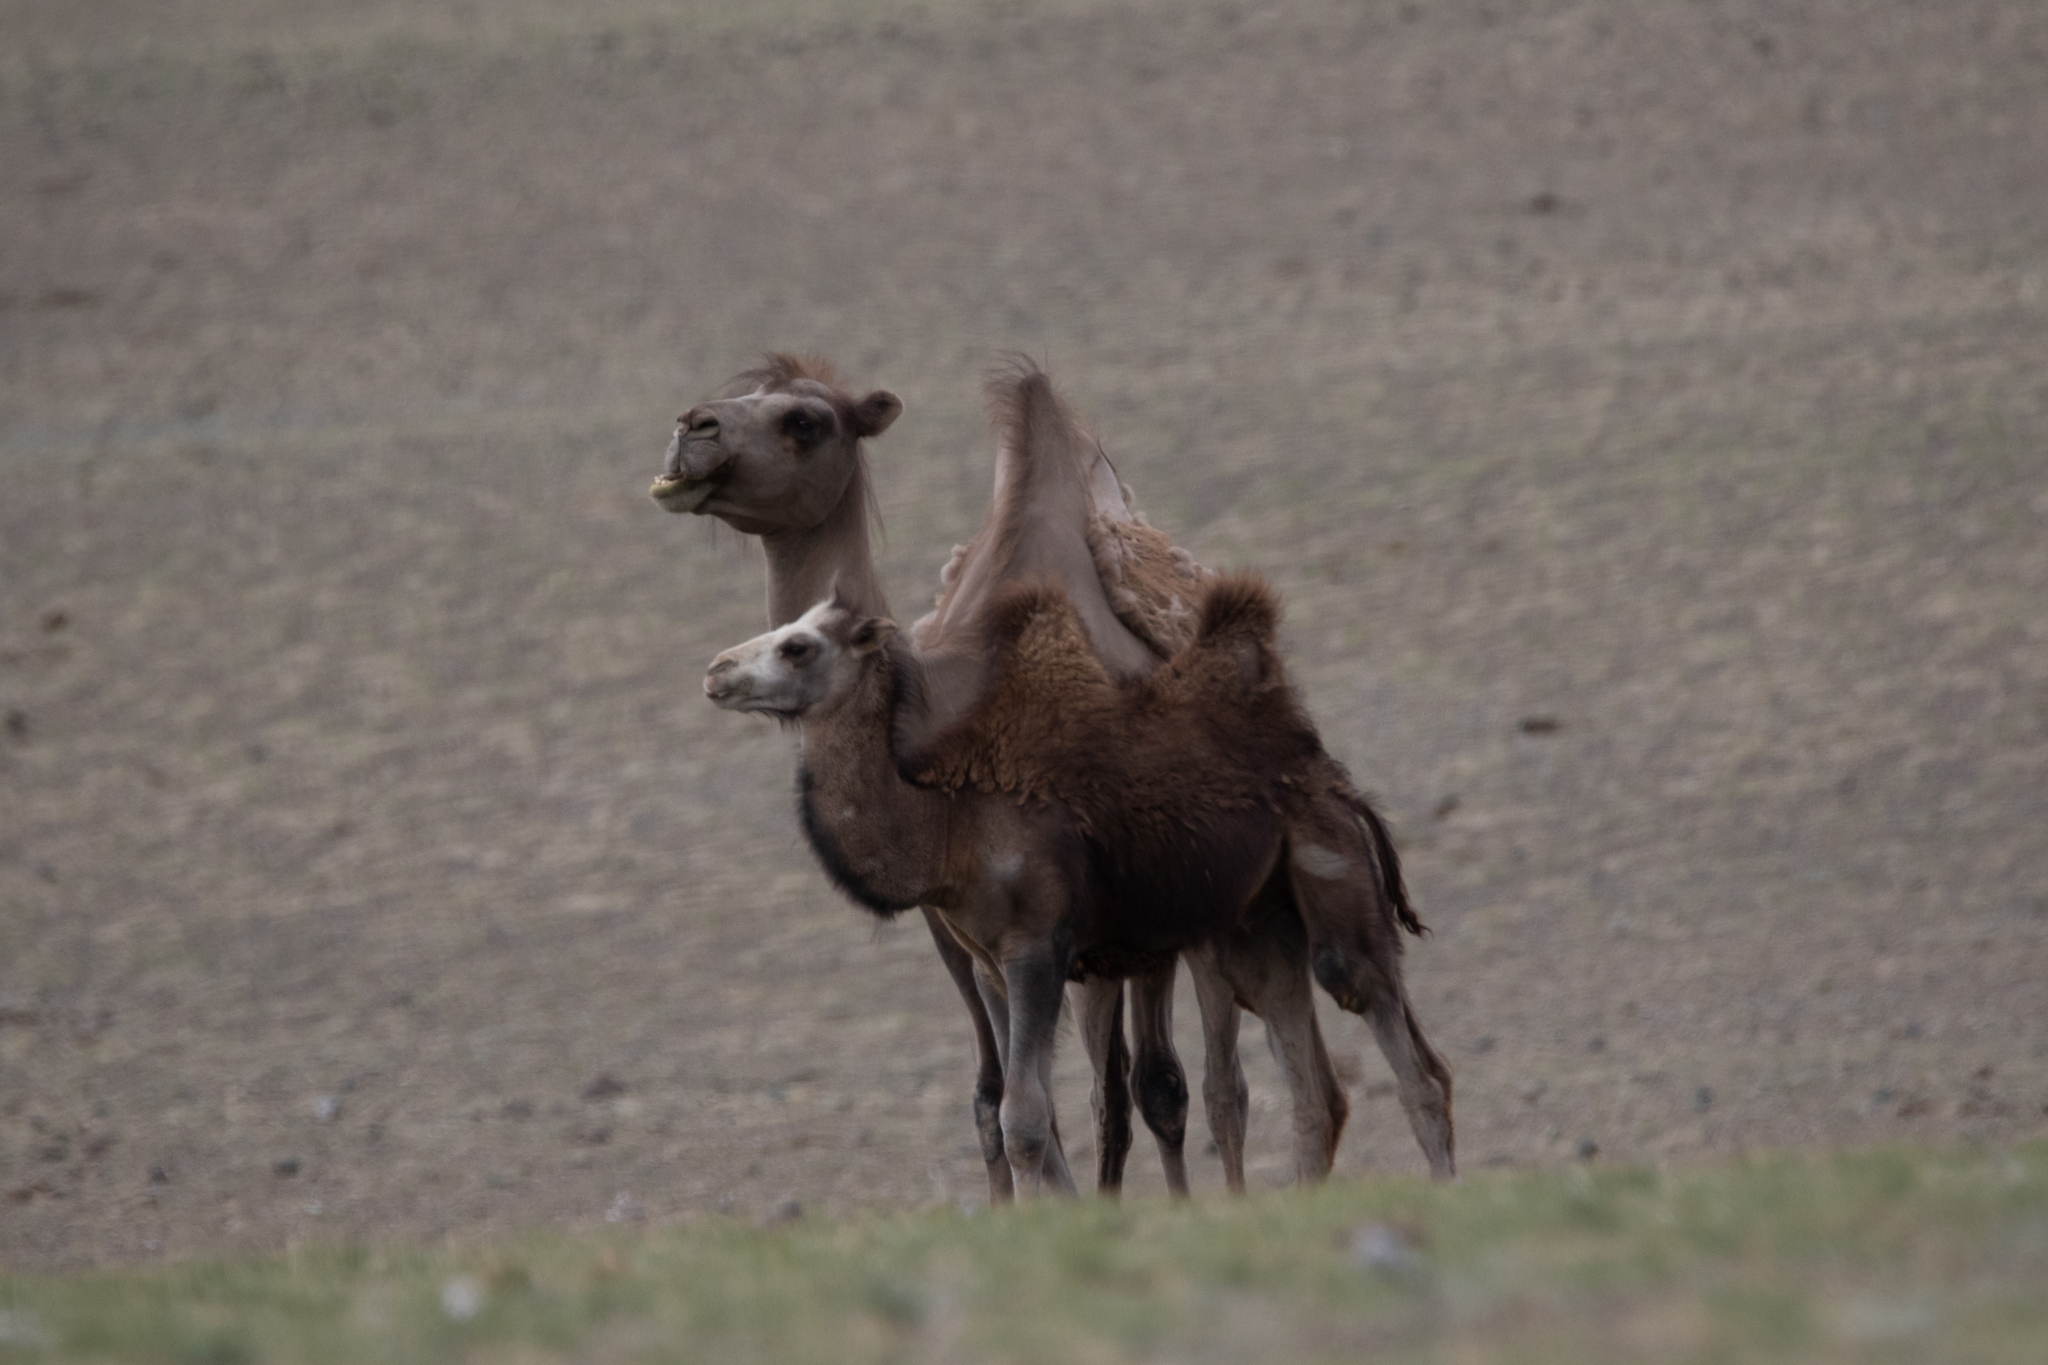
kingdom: Animalia
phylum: Chordata
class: Mammalia
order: Artiodactyla
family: Camelidae
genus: Camelus
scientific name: Camelus bactrianus
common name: Bactrian camel
